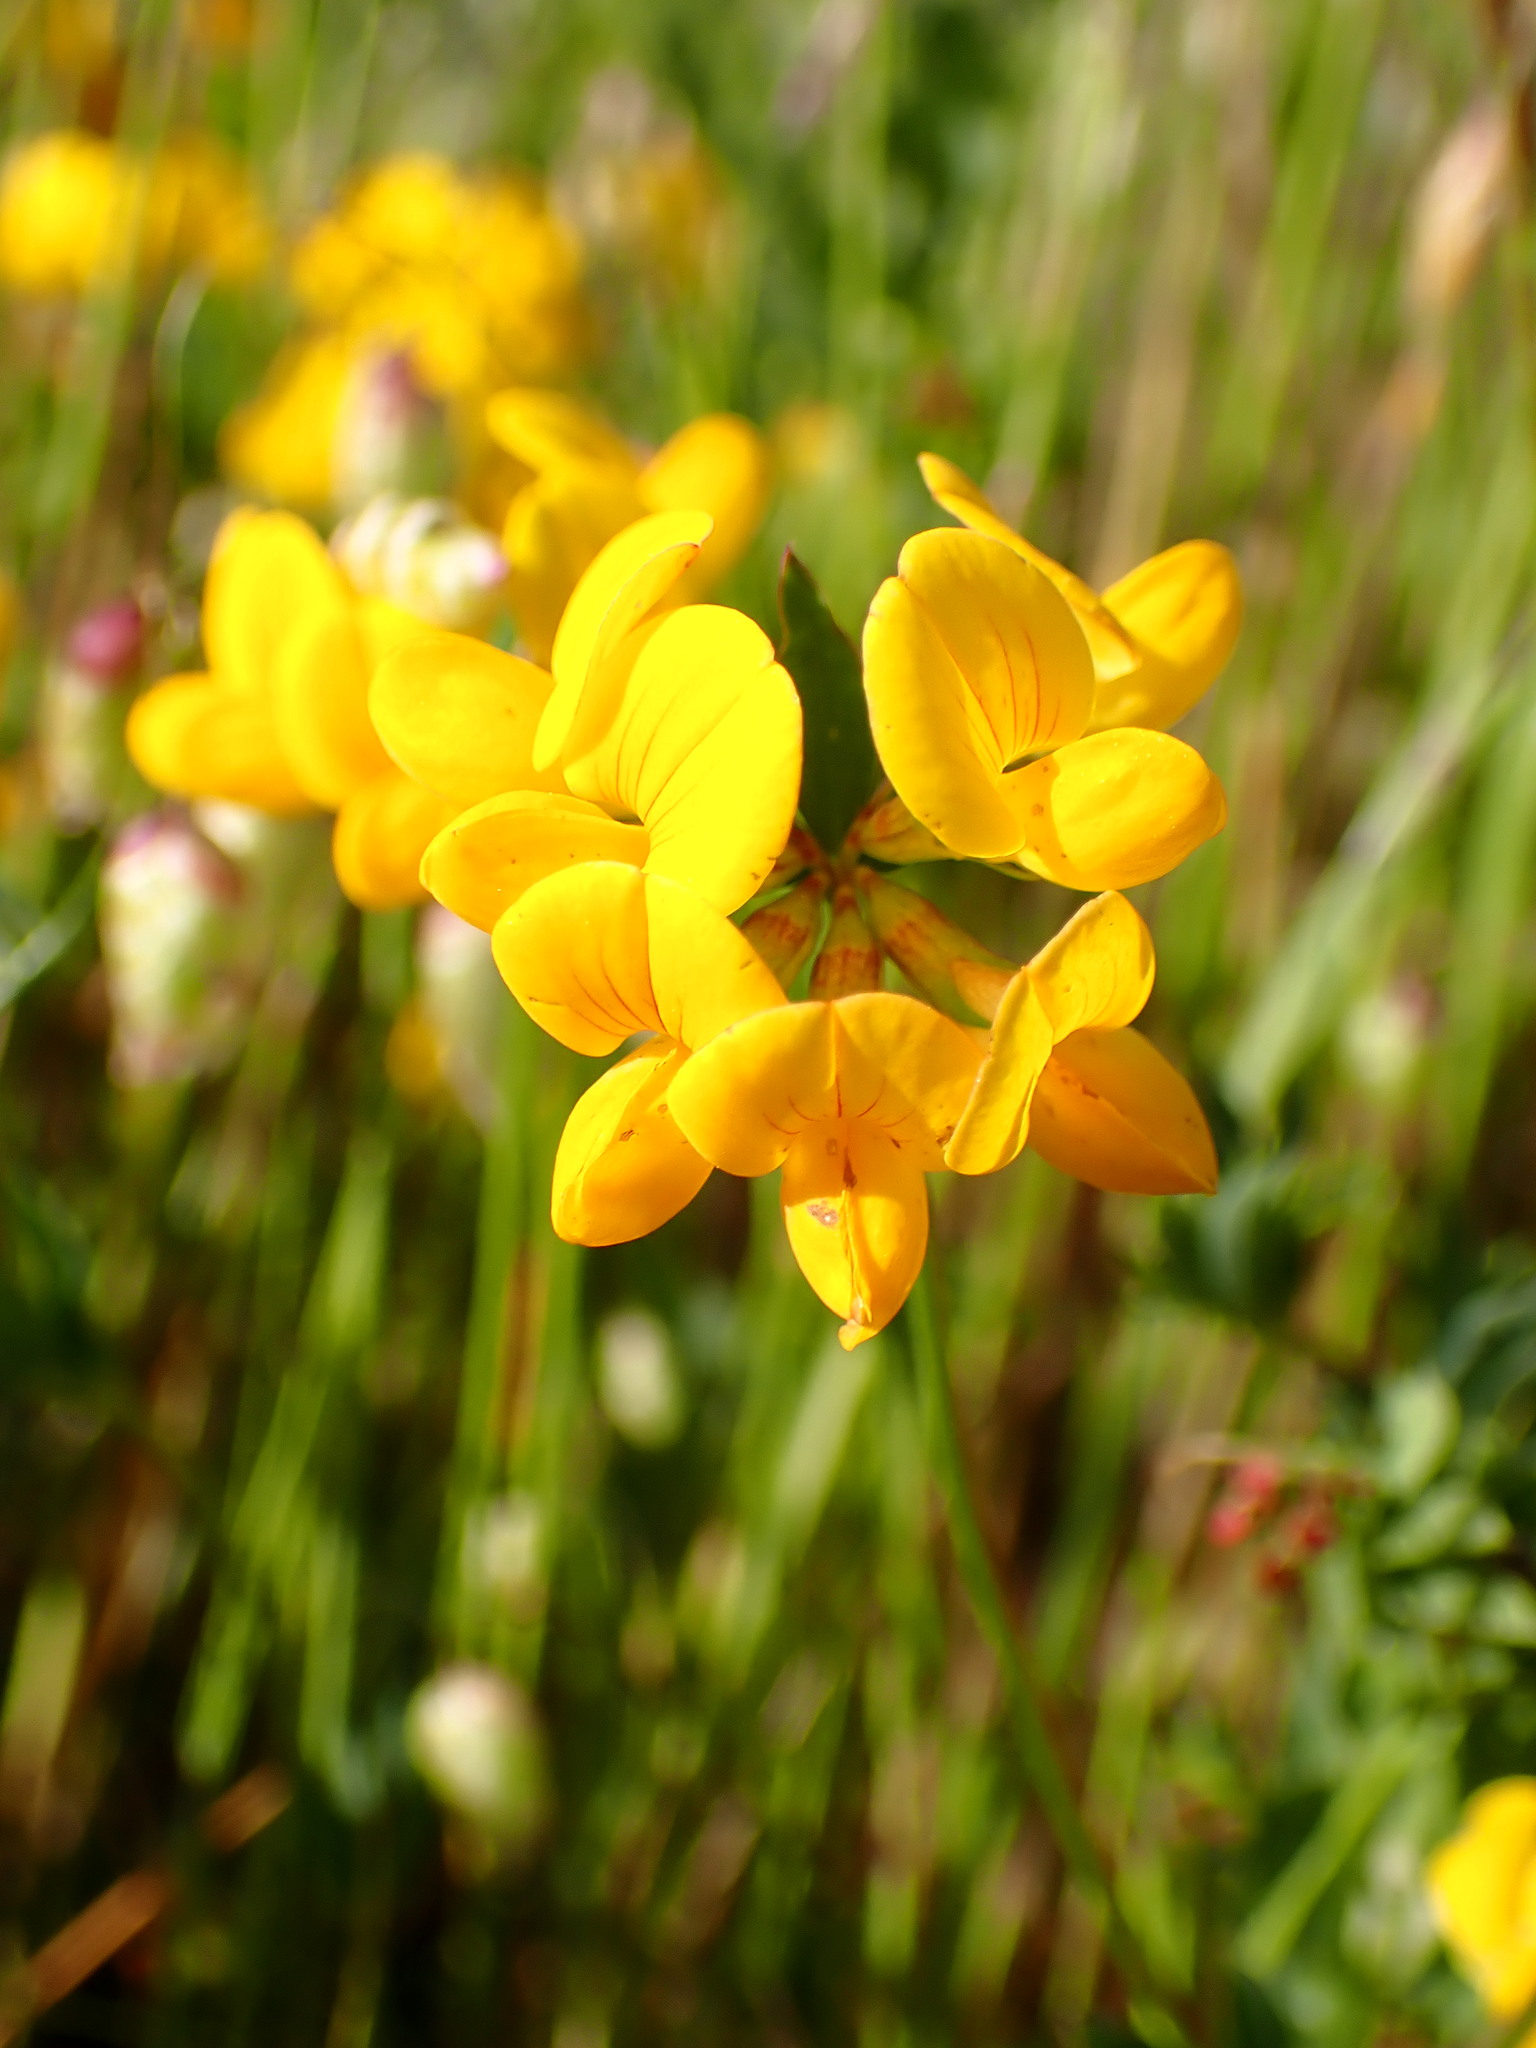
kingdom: Plantae
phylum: Tracheophyta
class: Magnoliopsida
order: Fabales
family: Fabaceae
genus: Lotus
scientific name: Lotus corniculatus
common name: Common bird's-foot-trefoil
